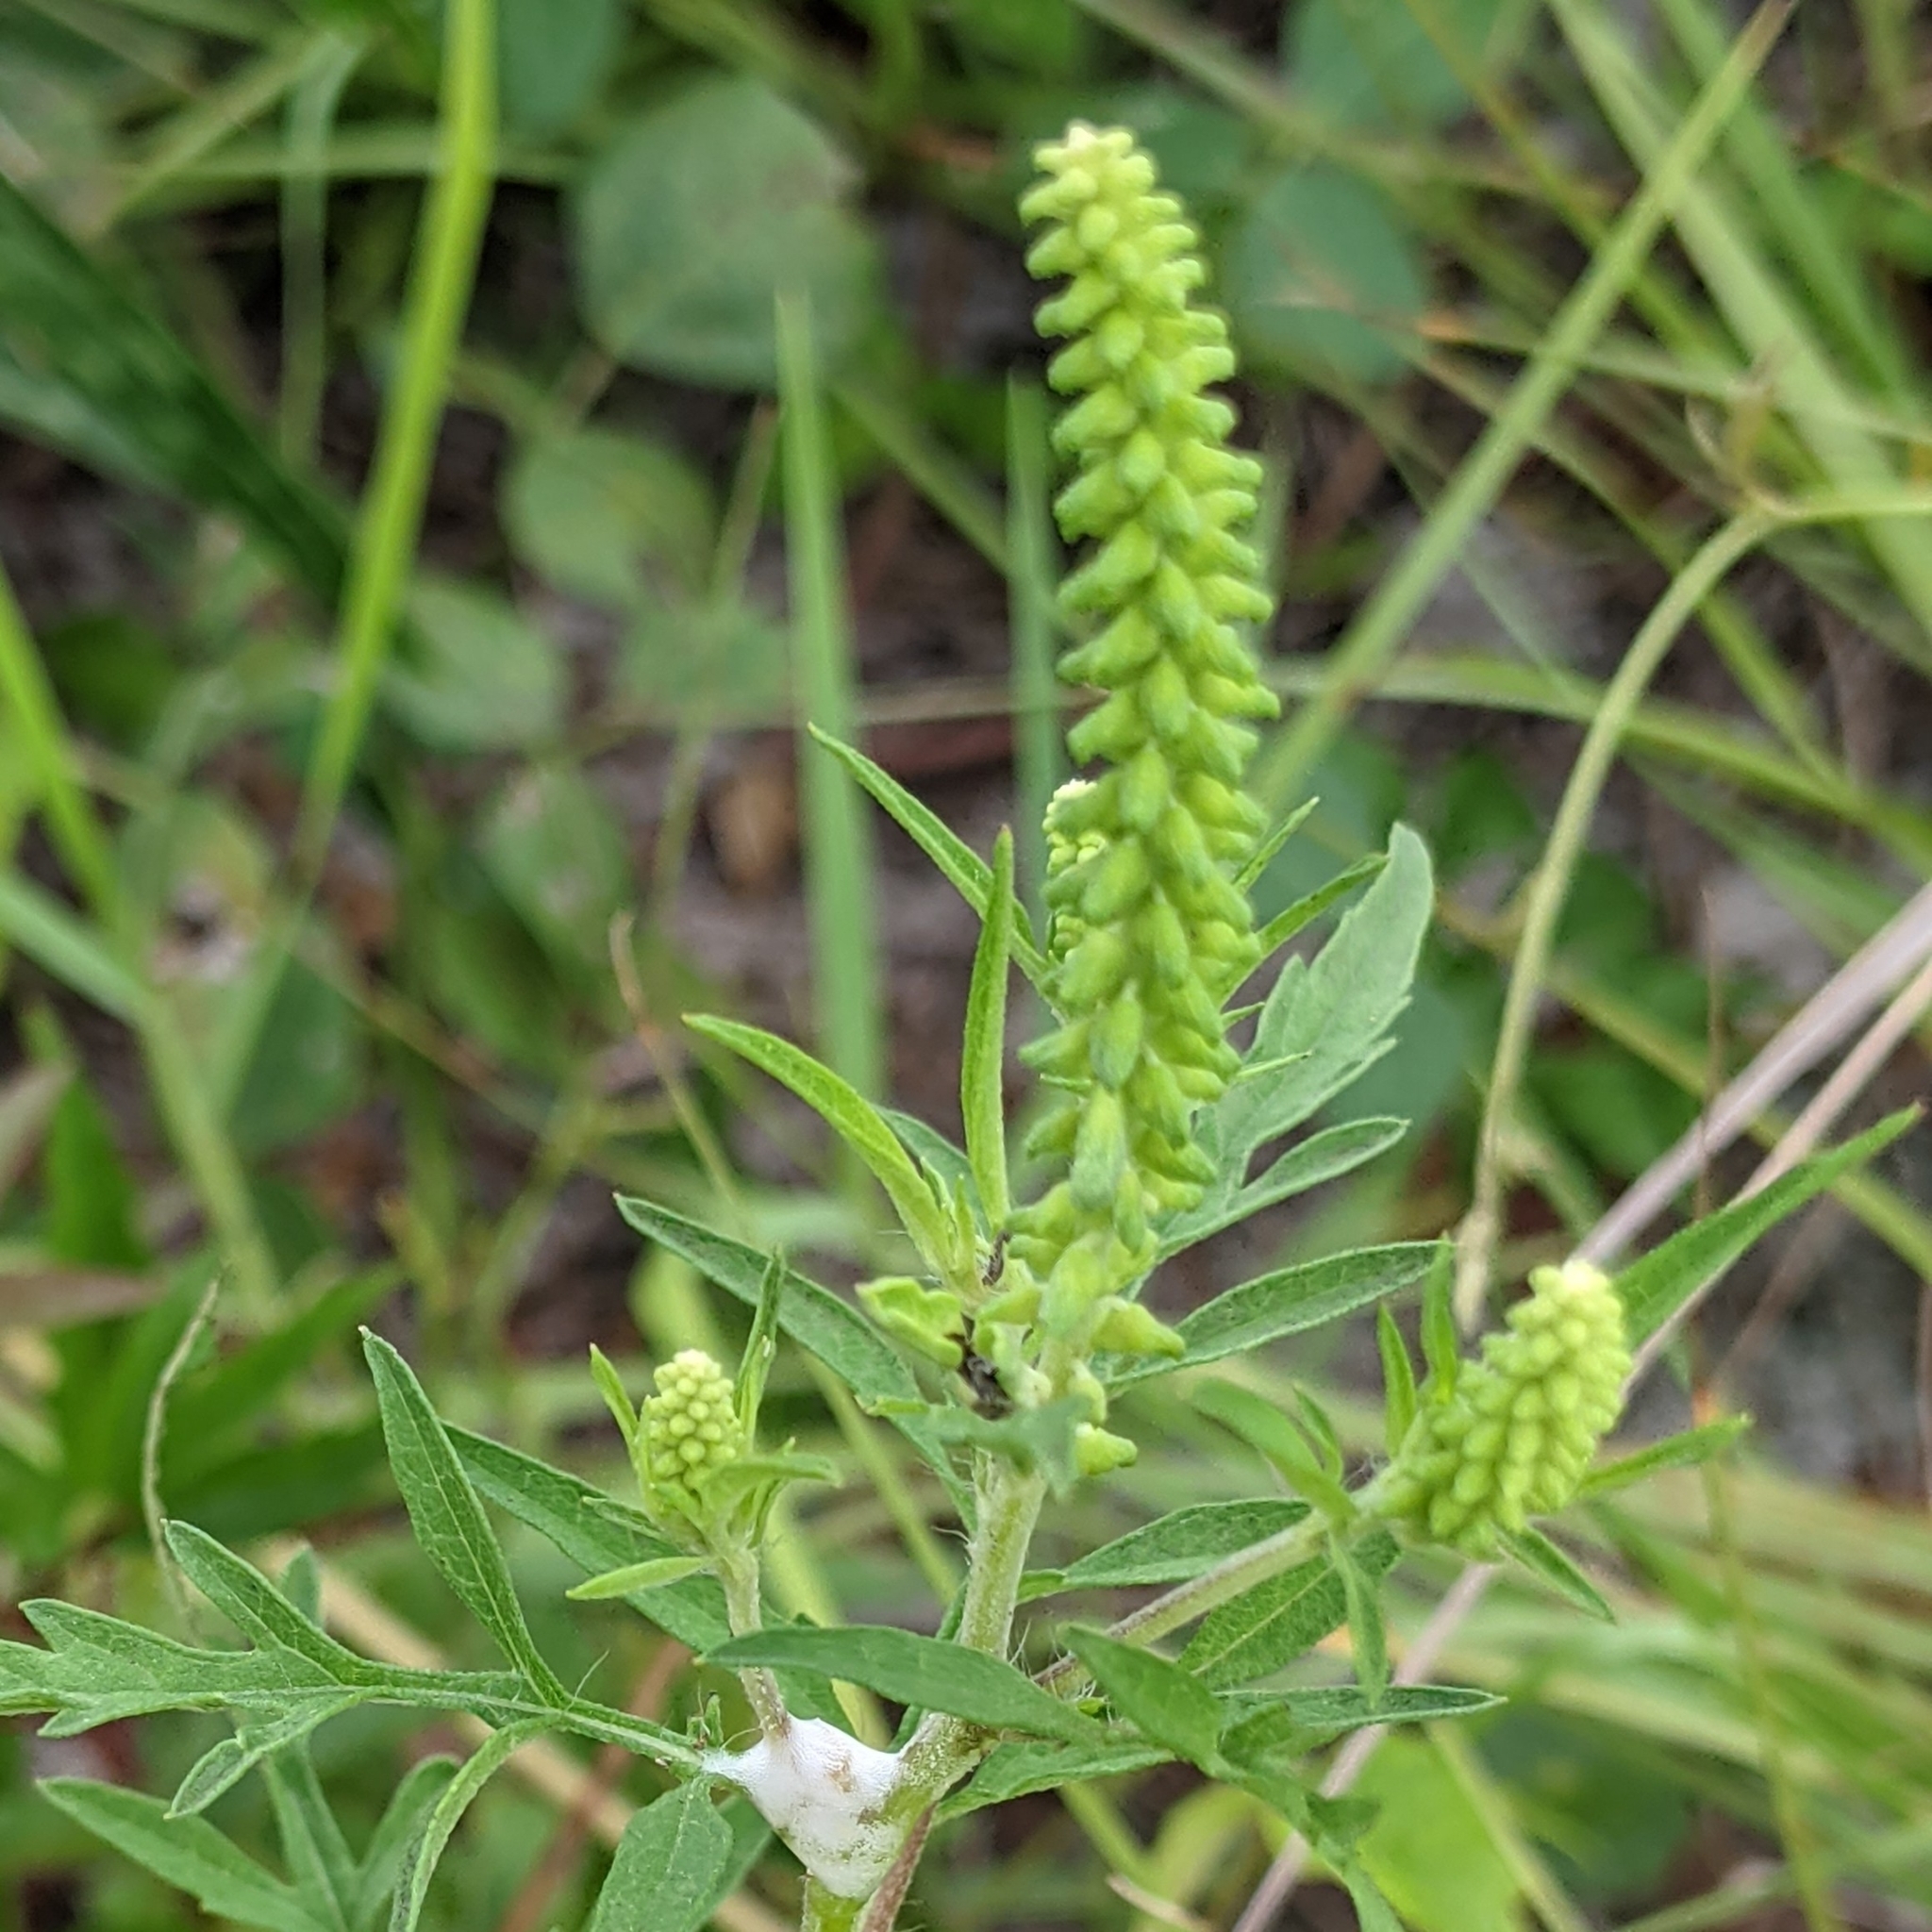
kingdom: Plantae
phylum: Tracheophyta
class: Magnoliopsida
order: Asterales
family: Asteraceae
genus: Ambrosia
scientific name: Ambrosia artemisiifolia
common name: Annual ragweed
